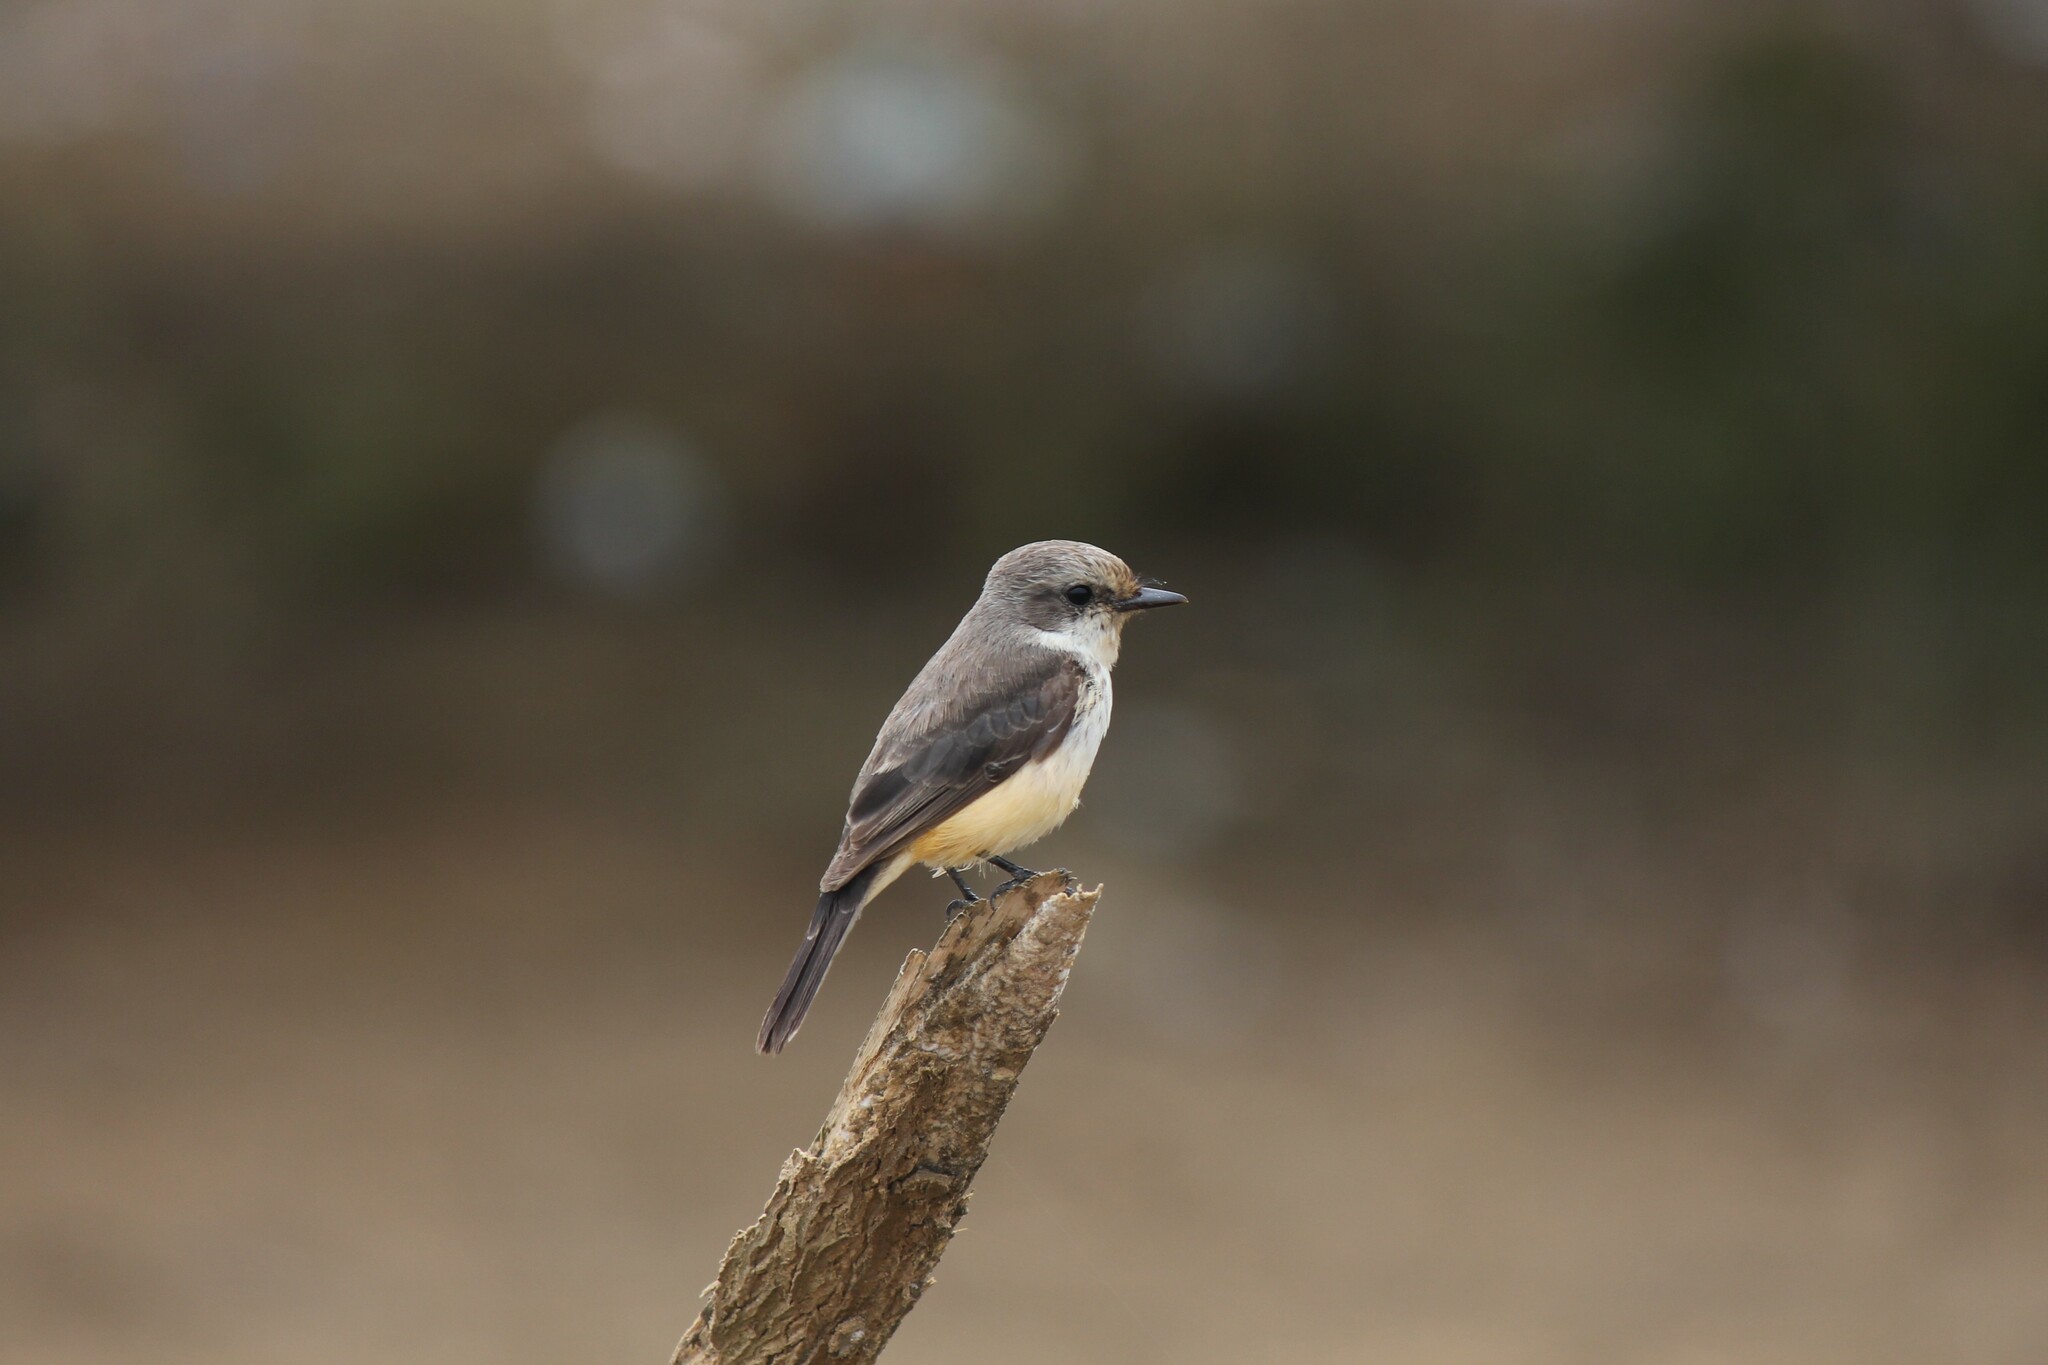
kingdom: Animalia
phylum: Chordata
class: Aves
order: Passeriformes
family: Tyrannidae
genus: Pyrocephalus
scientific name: Pyrocephalus rubinus
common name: Vermilion flycatcher
